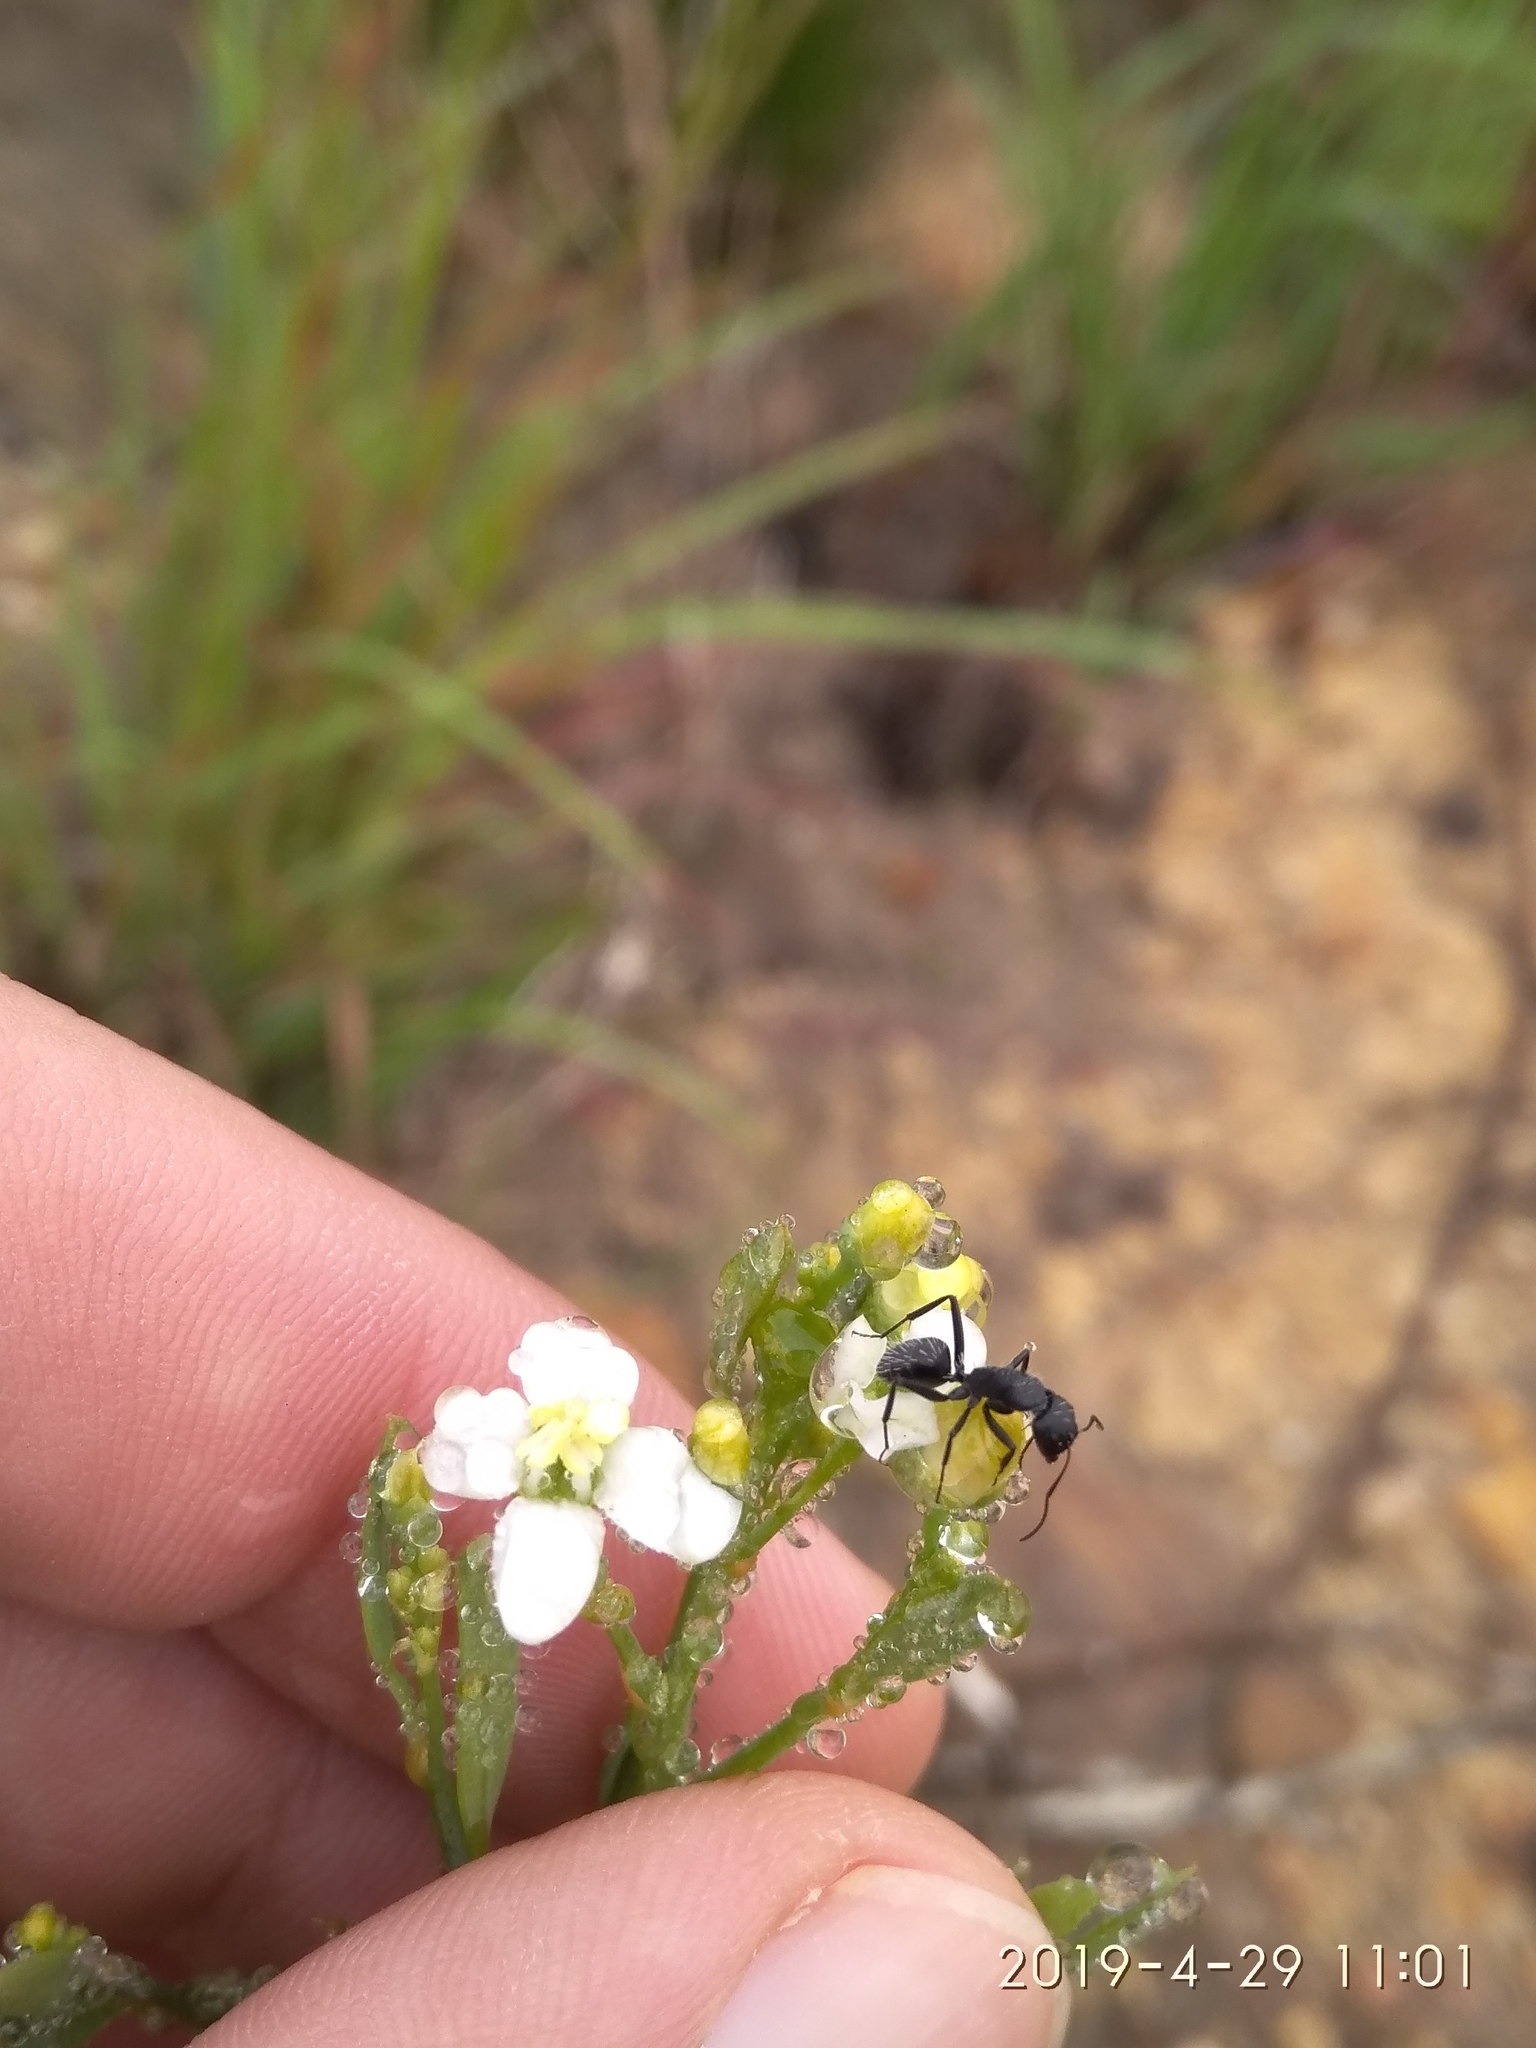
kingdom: Plantae
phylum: Tracheophyta
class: Magnoliopsida
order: Solanales
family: Montiniaceae
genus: Montinia
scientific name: Montinia caryophyllacea
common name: Wild clove-bush
